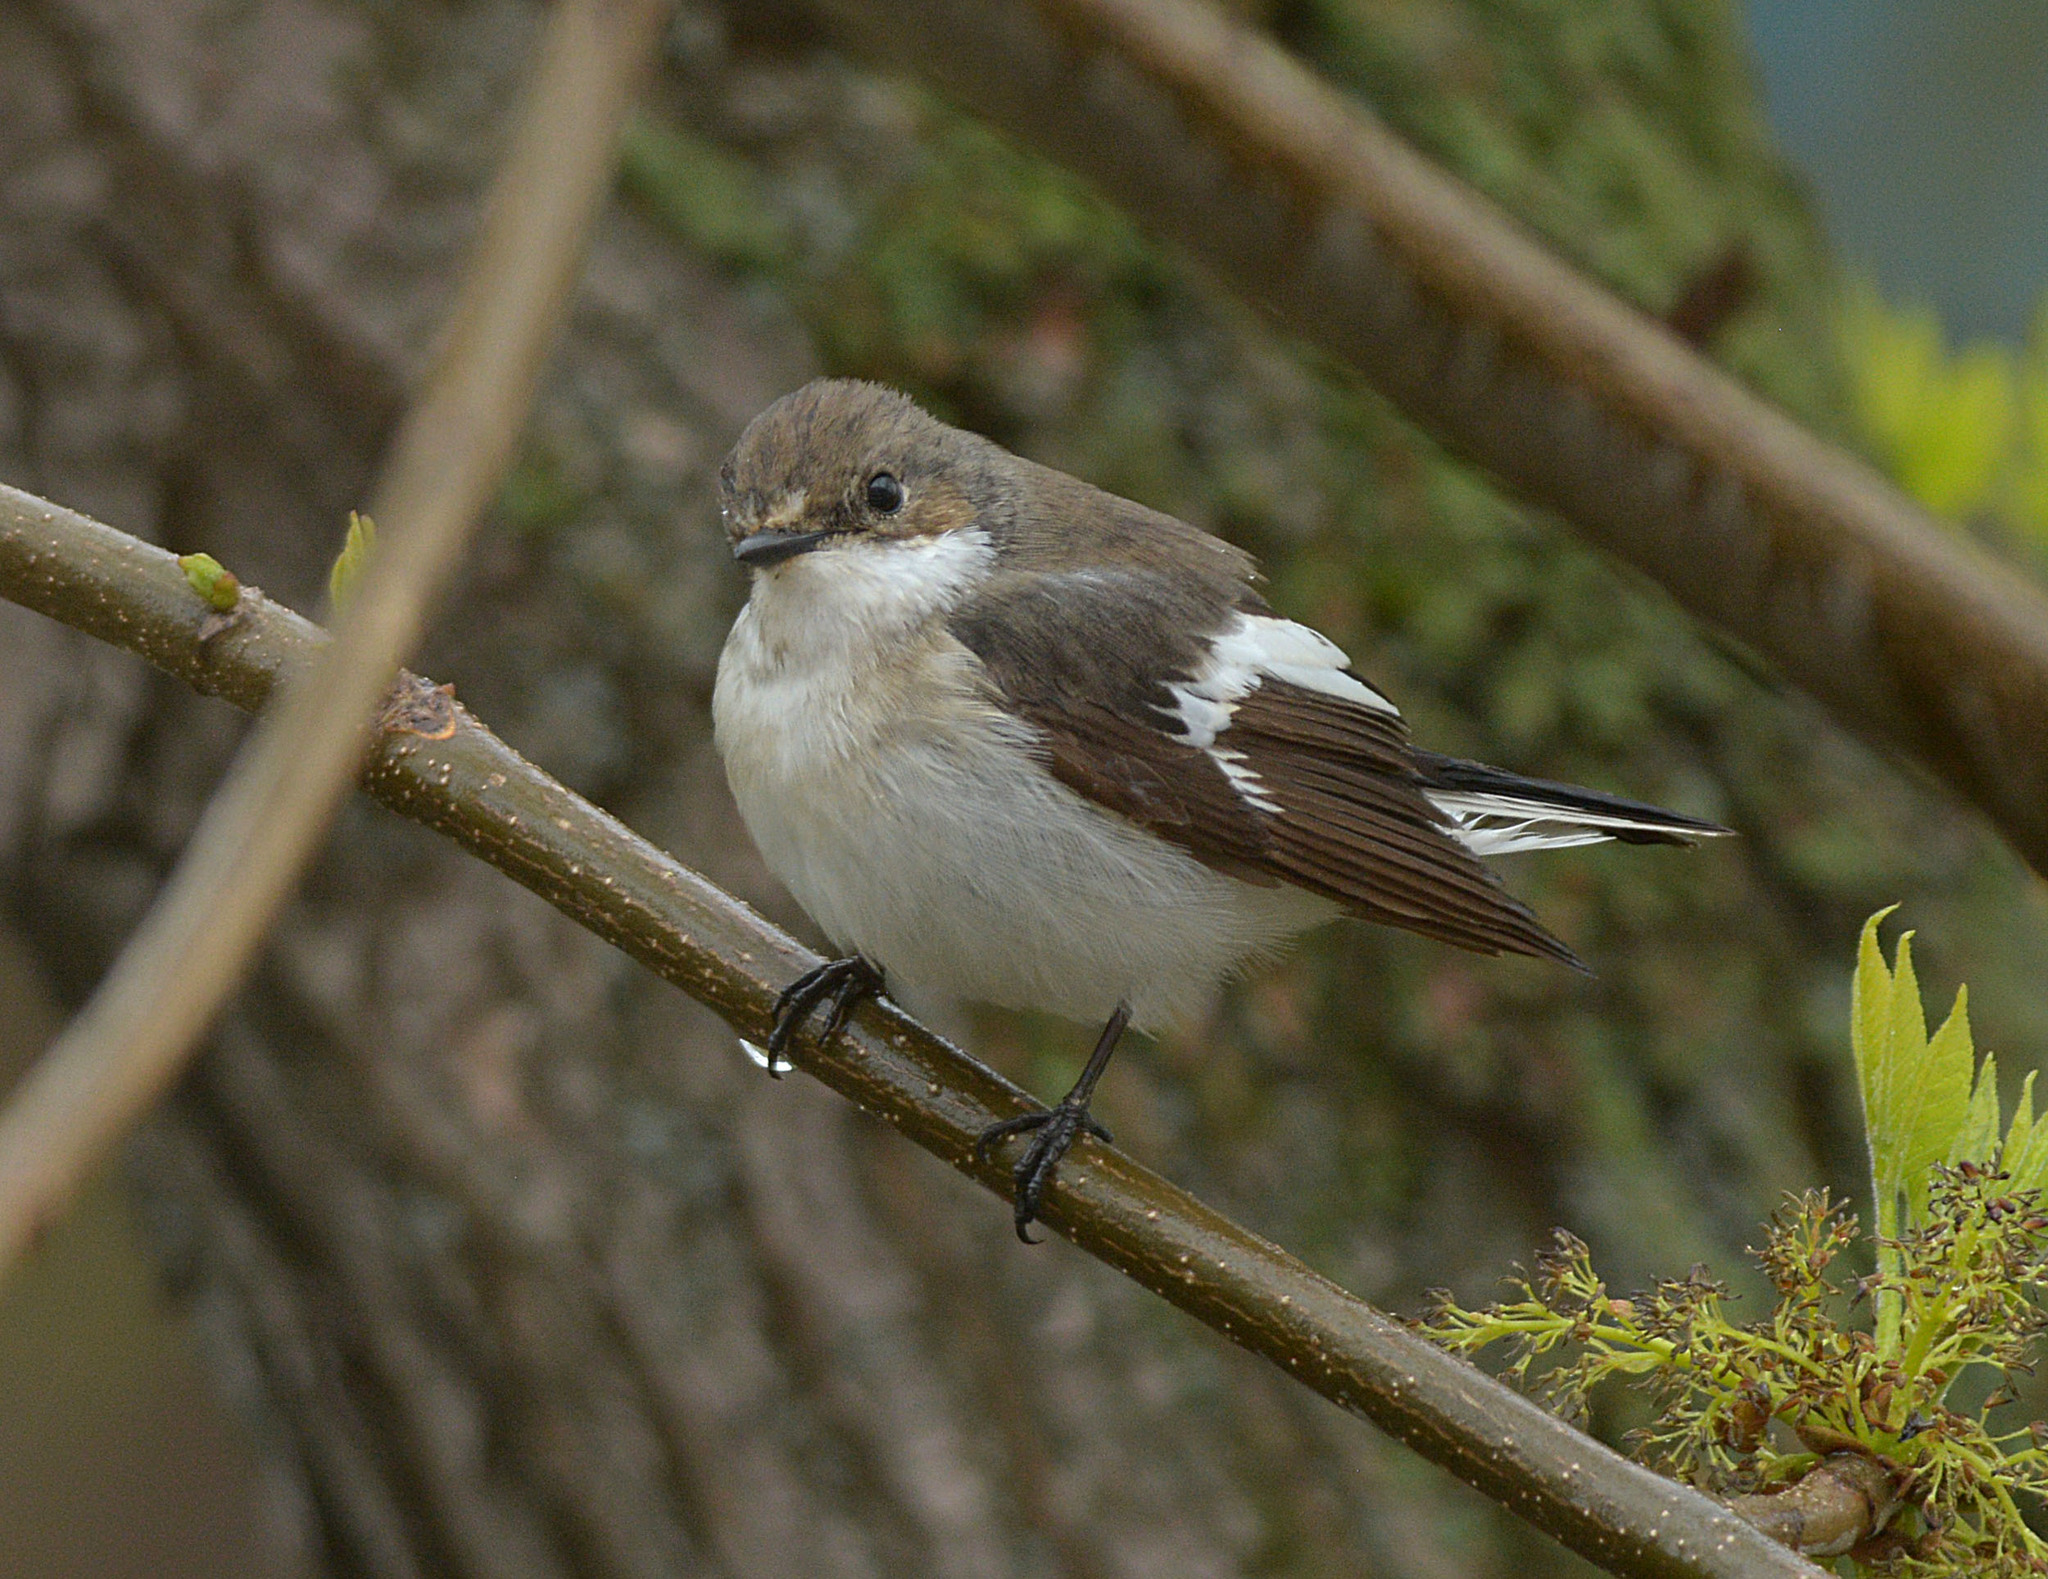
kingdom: Animalia
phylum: Chordata
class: Aves
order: Passeriformes
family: Muscicapidae
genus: Ficedula
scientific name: Ficedula hypoleuca
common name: European pied flycatcher
